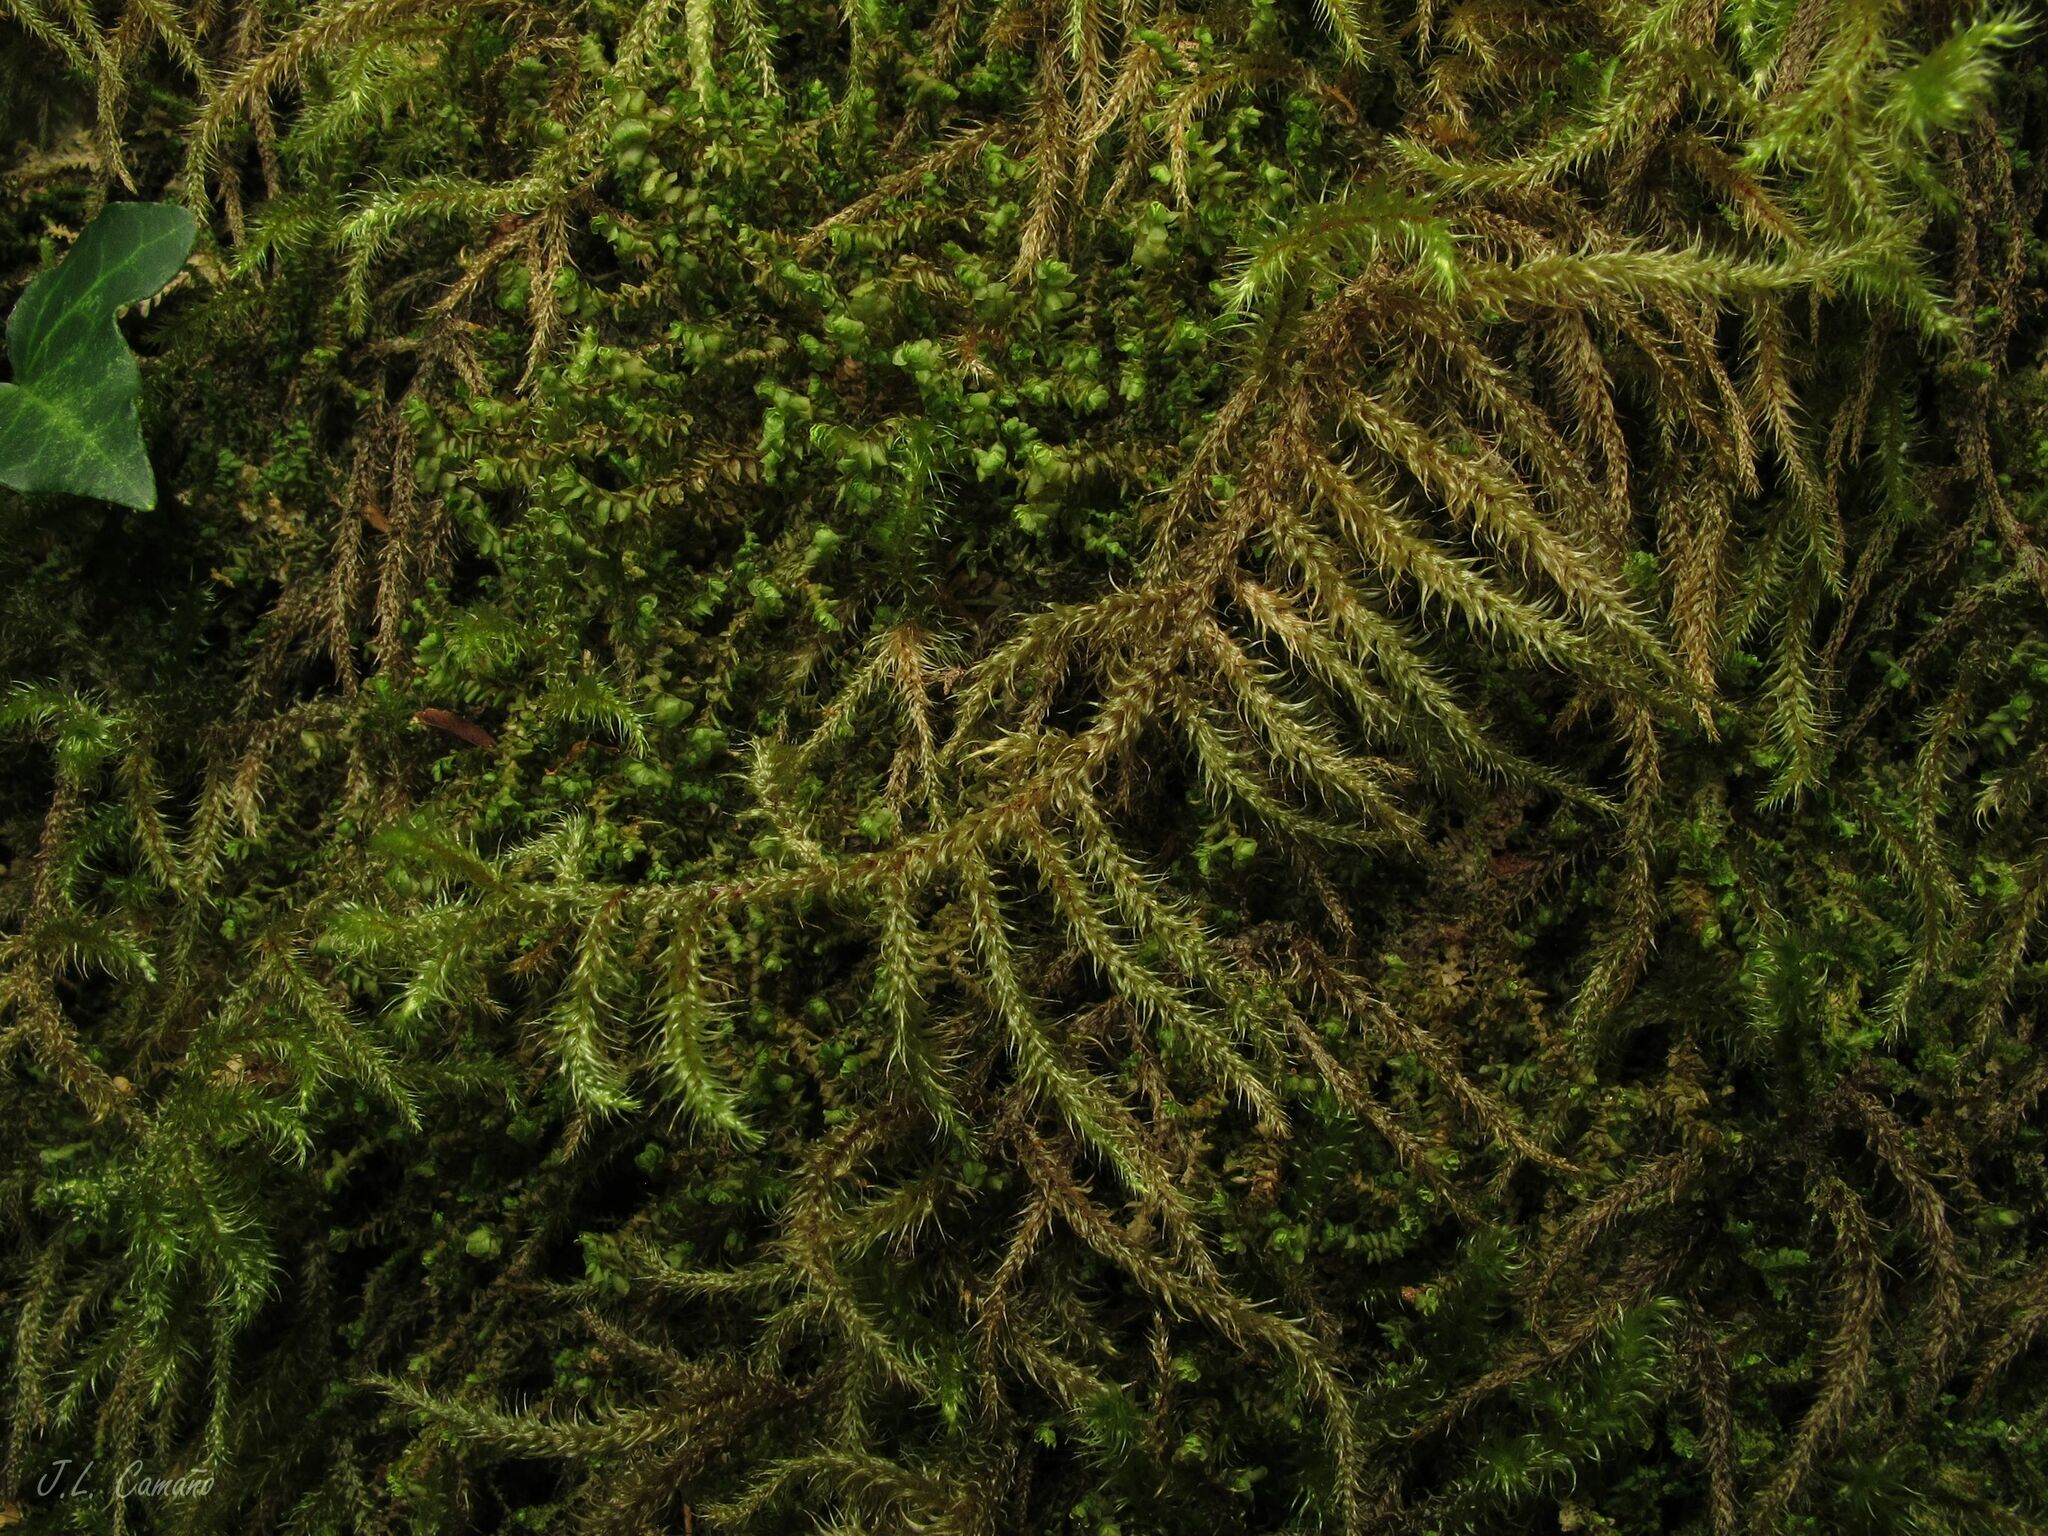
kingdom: Plantae
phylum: Bryophyta
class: Bryopsida
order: Hypnales
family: Hylocomiaceae
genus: Rhytidiadelphus
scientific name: Rhytidiadelphus loreus
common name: Lanky moss
